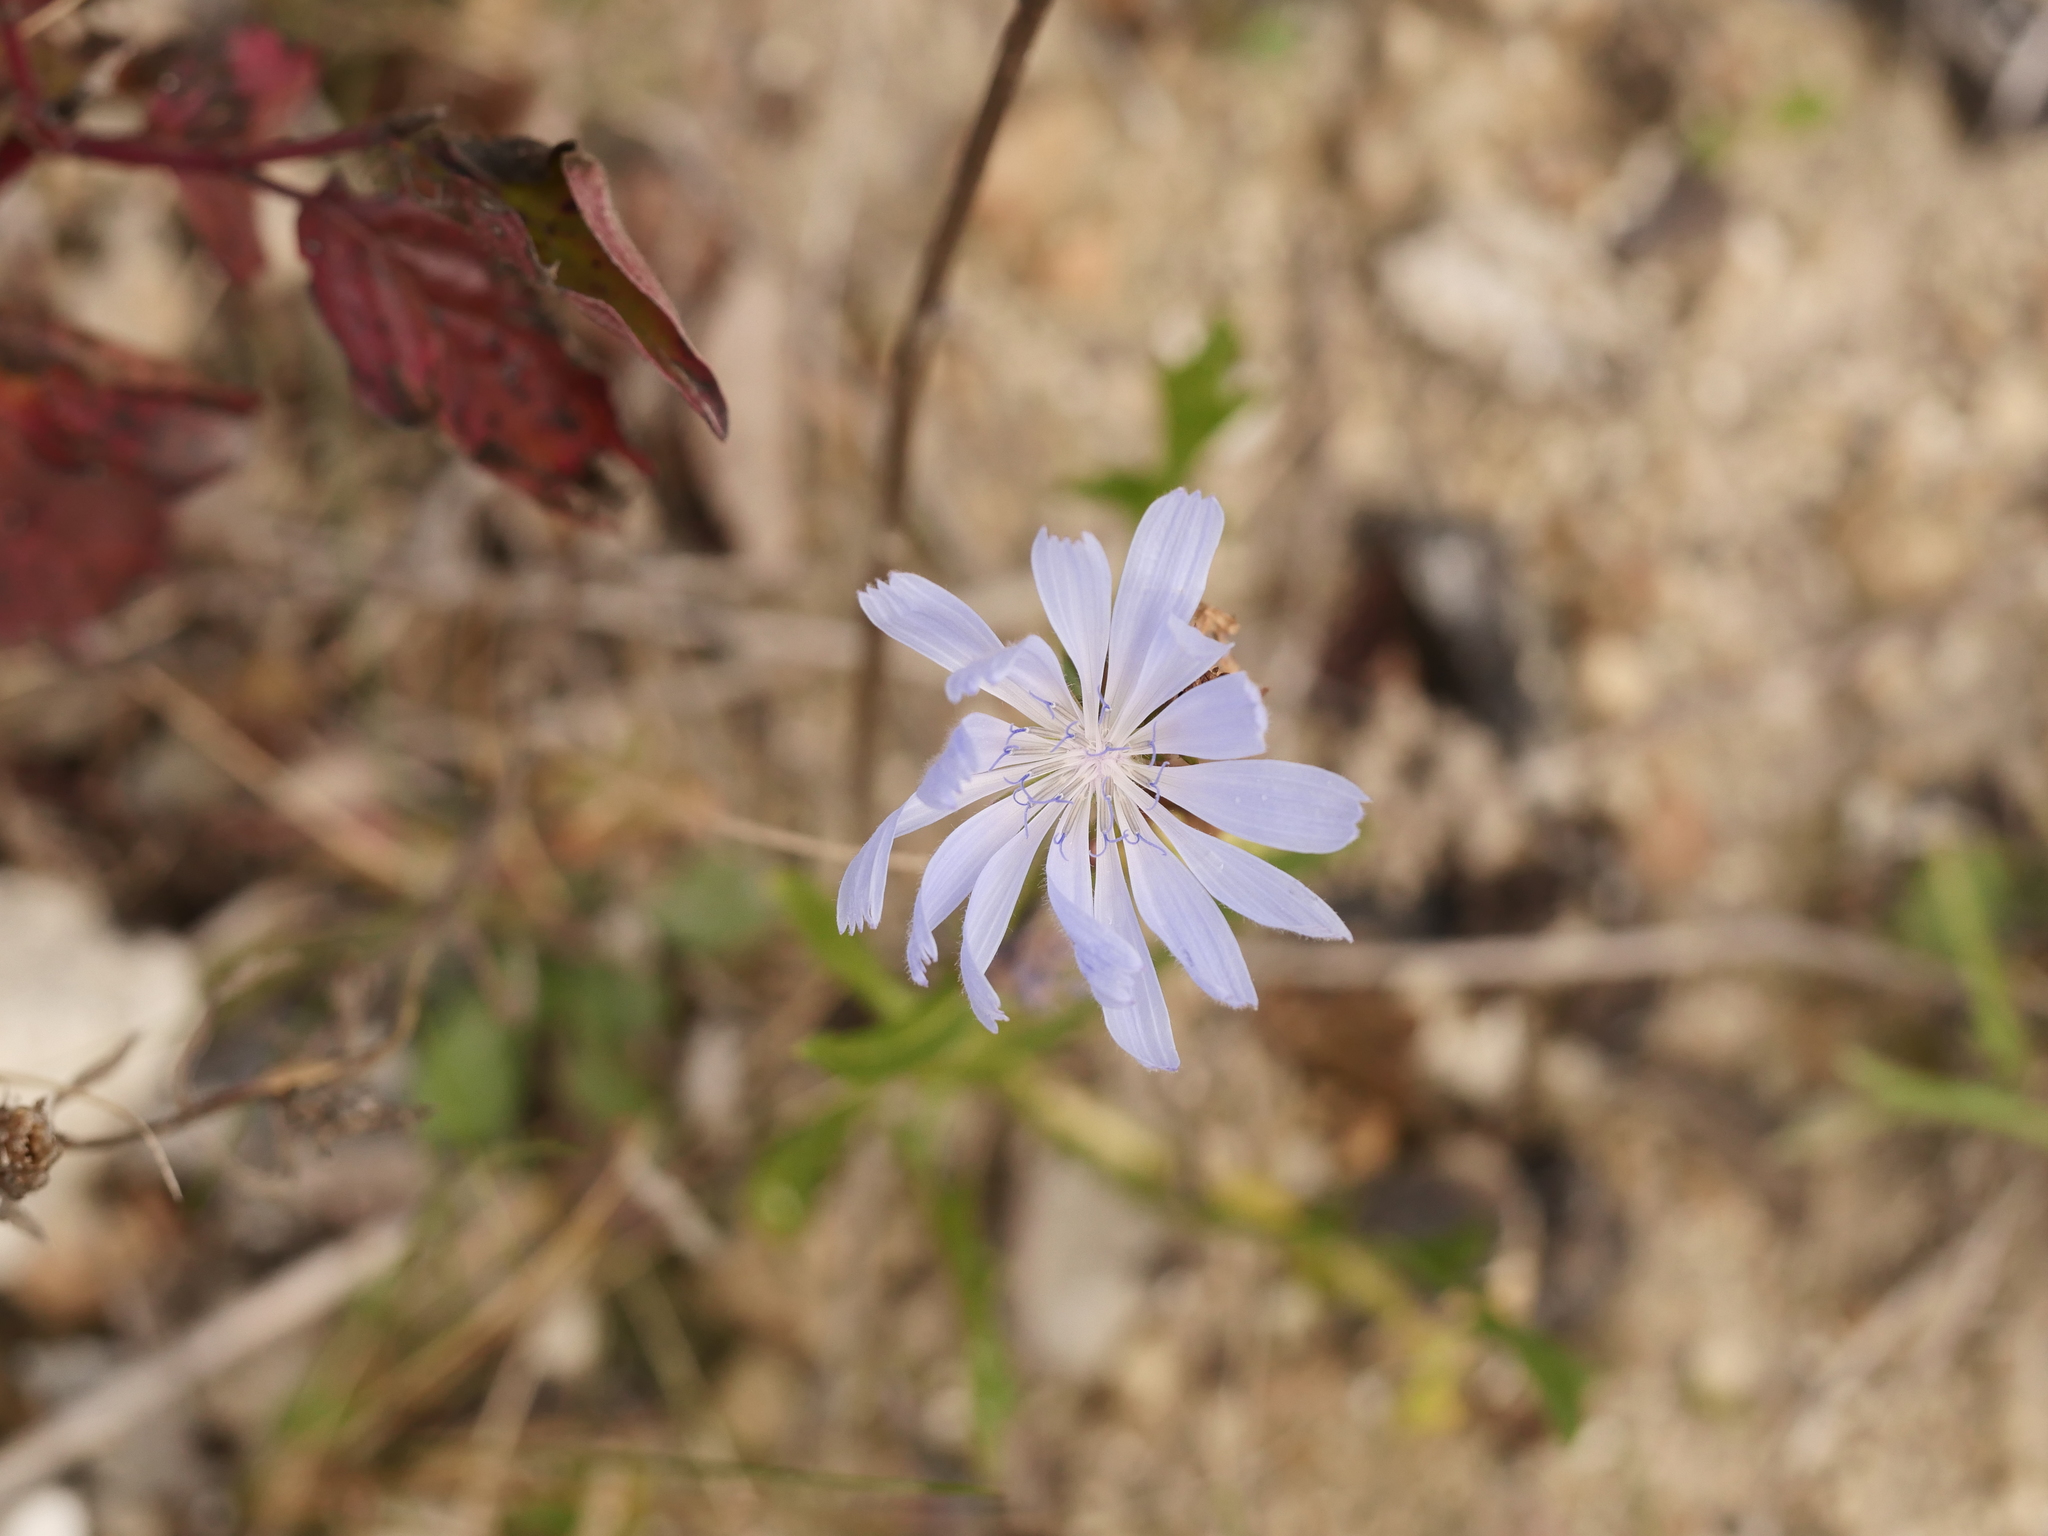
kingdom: Plantae
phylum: Tracheophyta
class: Magnoliopsida
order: Asterales
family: Asteraceae
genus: Cichorium
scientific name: Cichorium intybus
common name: Chicory
